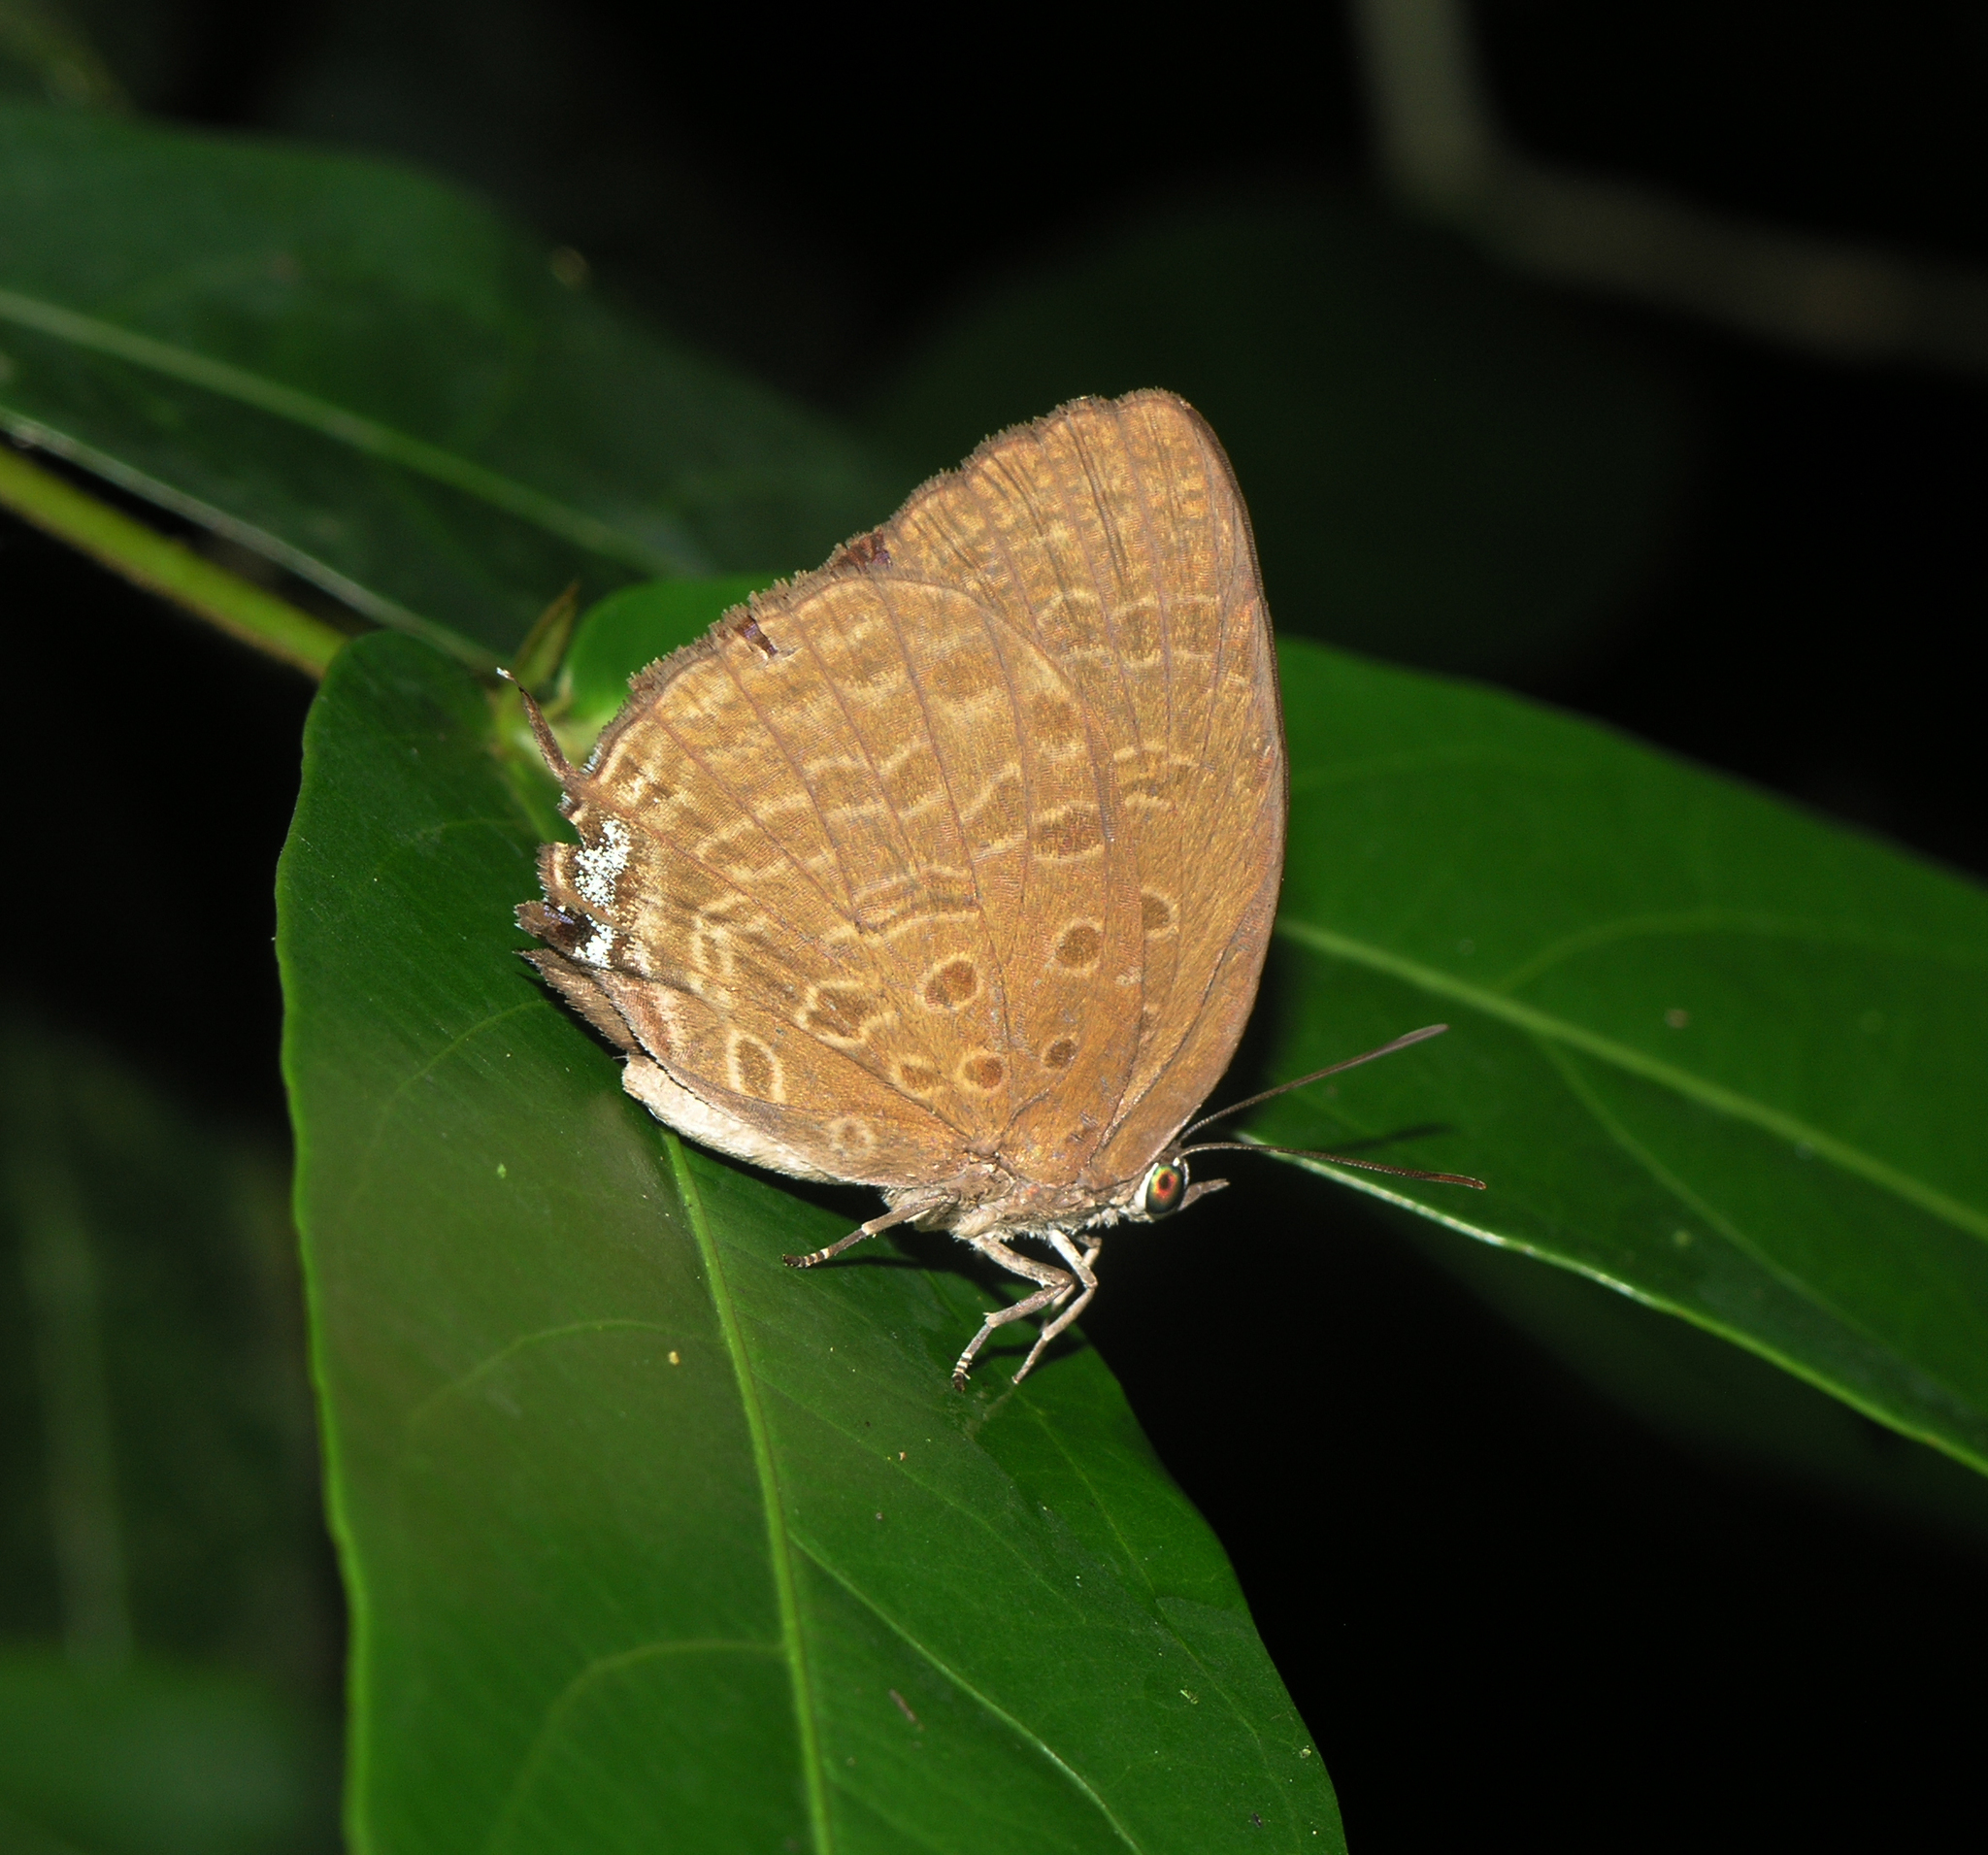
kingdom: Animalia
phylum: Arthropoda
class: Insecta
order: Lepidoptera
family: Lycaenidae
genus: Arhopala
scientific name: Arhopala atosia
